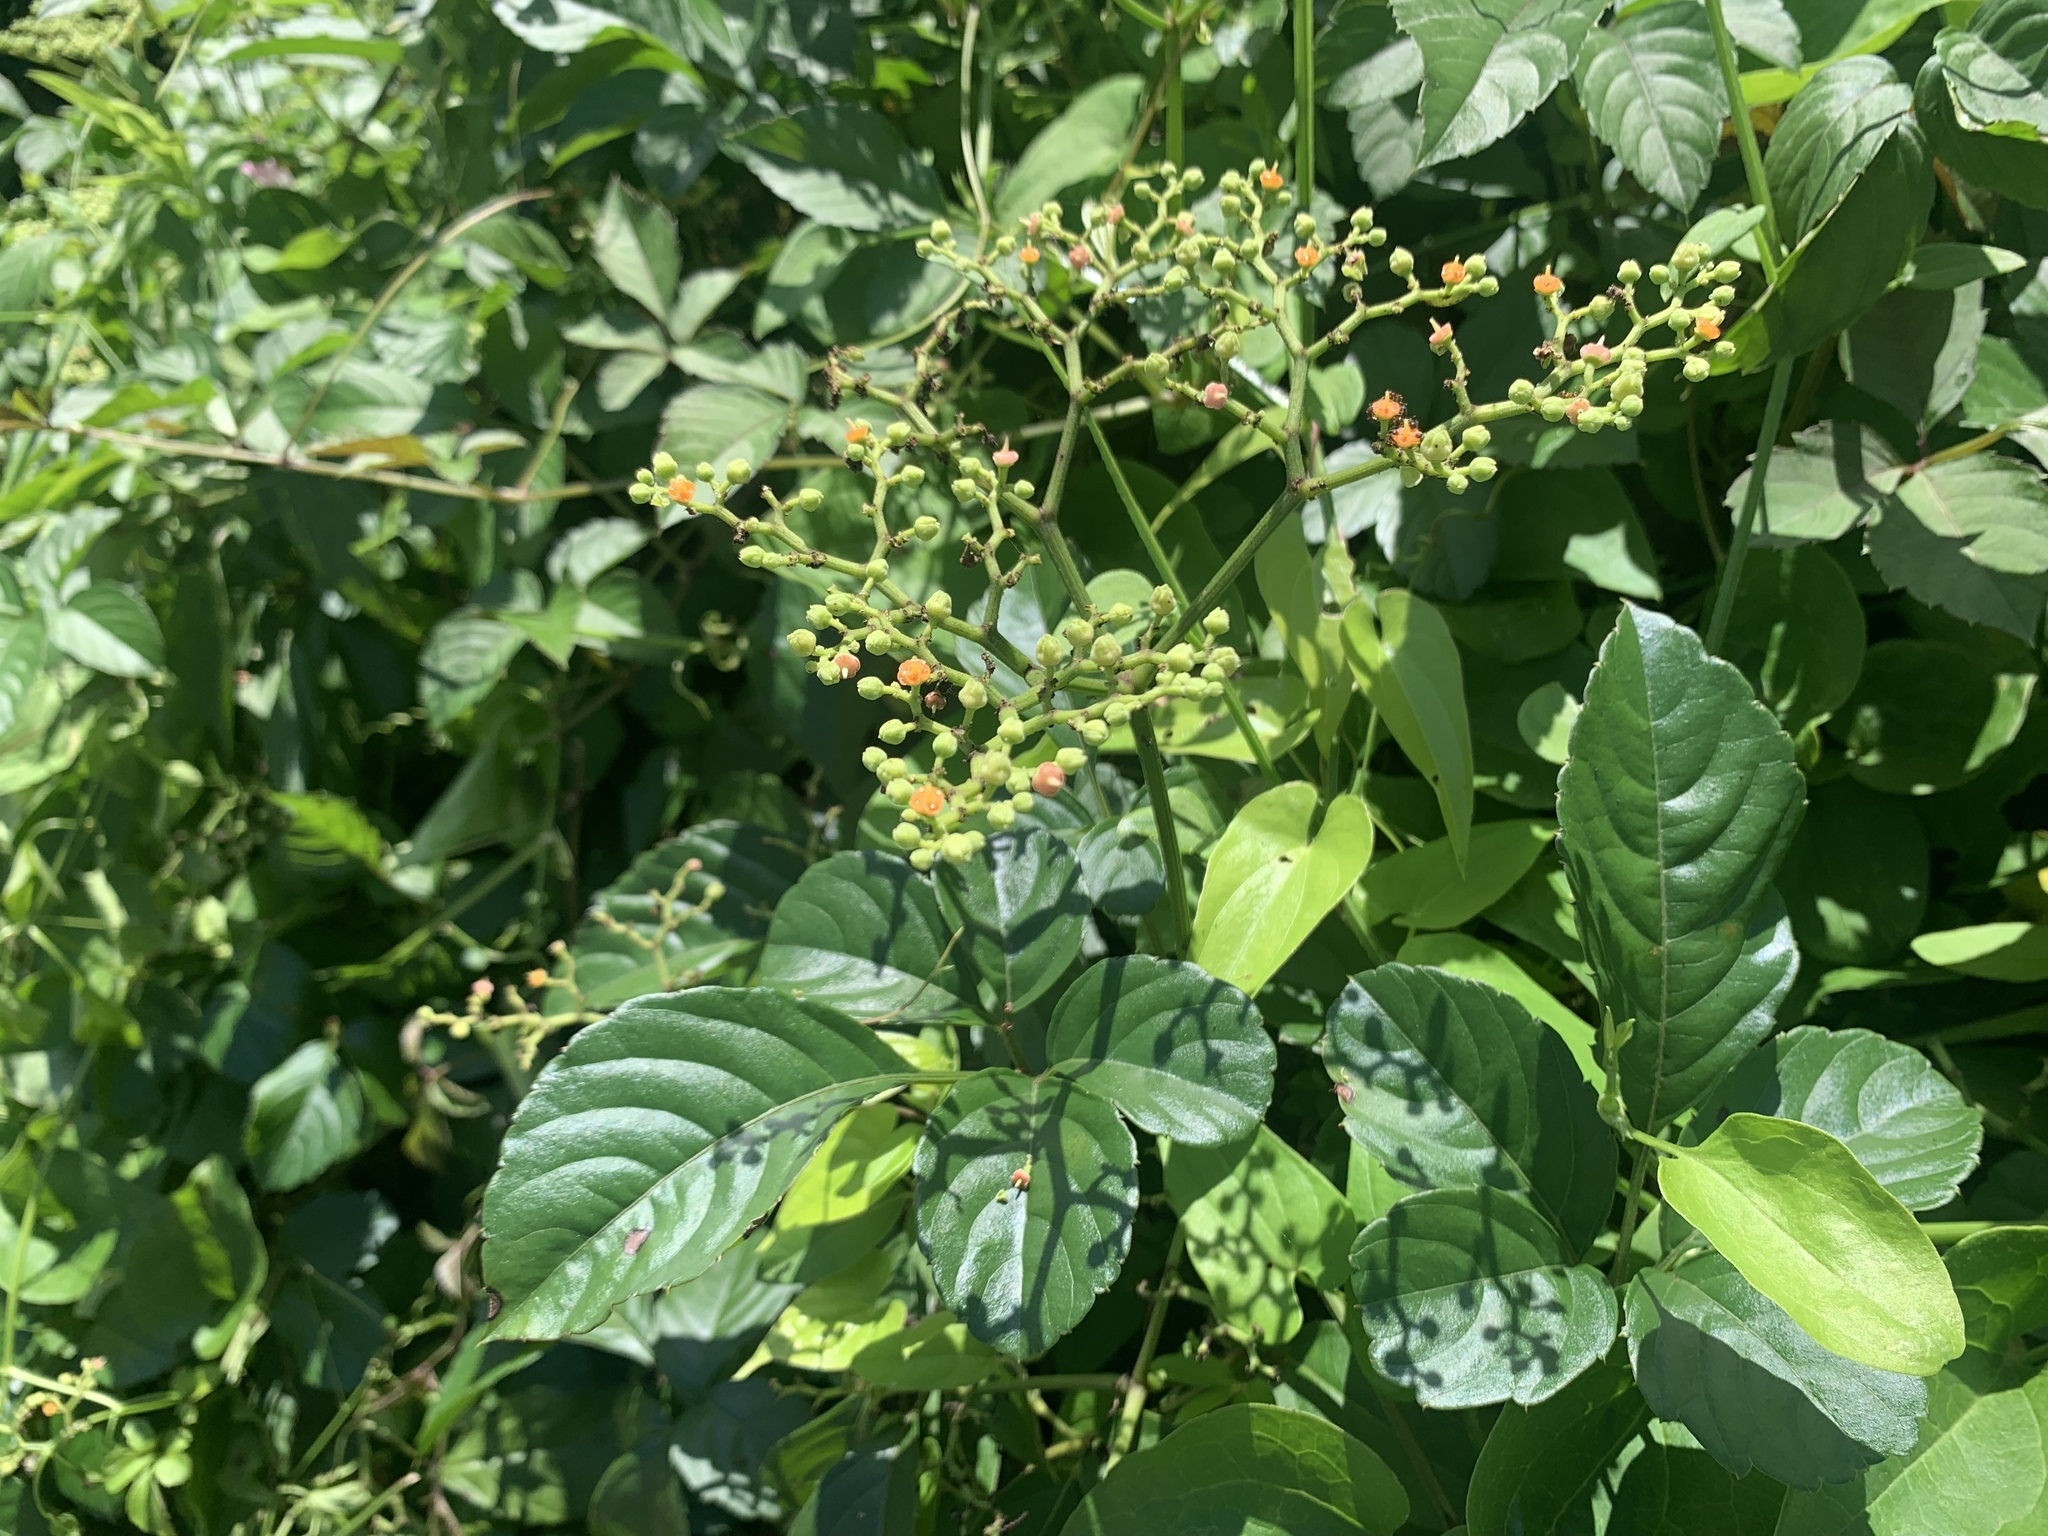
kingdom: Plantae
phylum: Tracheophyta
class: Magnoliopsida
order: Vitales
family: Vitaceae
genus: Causonis
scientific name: Causonis japonica
